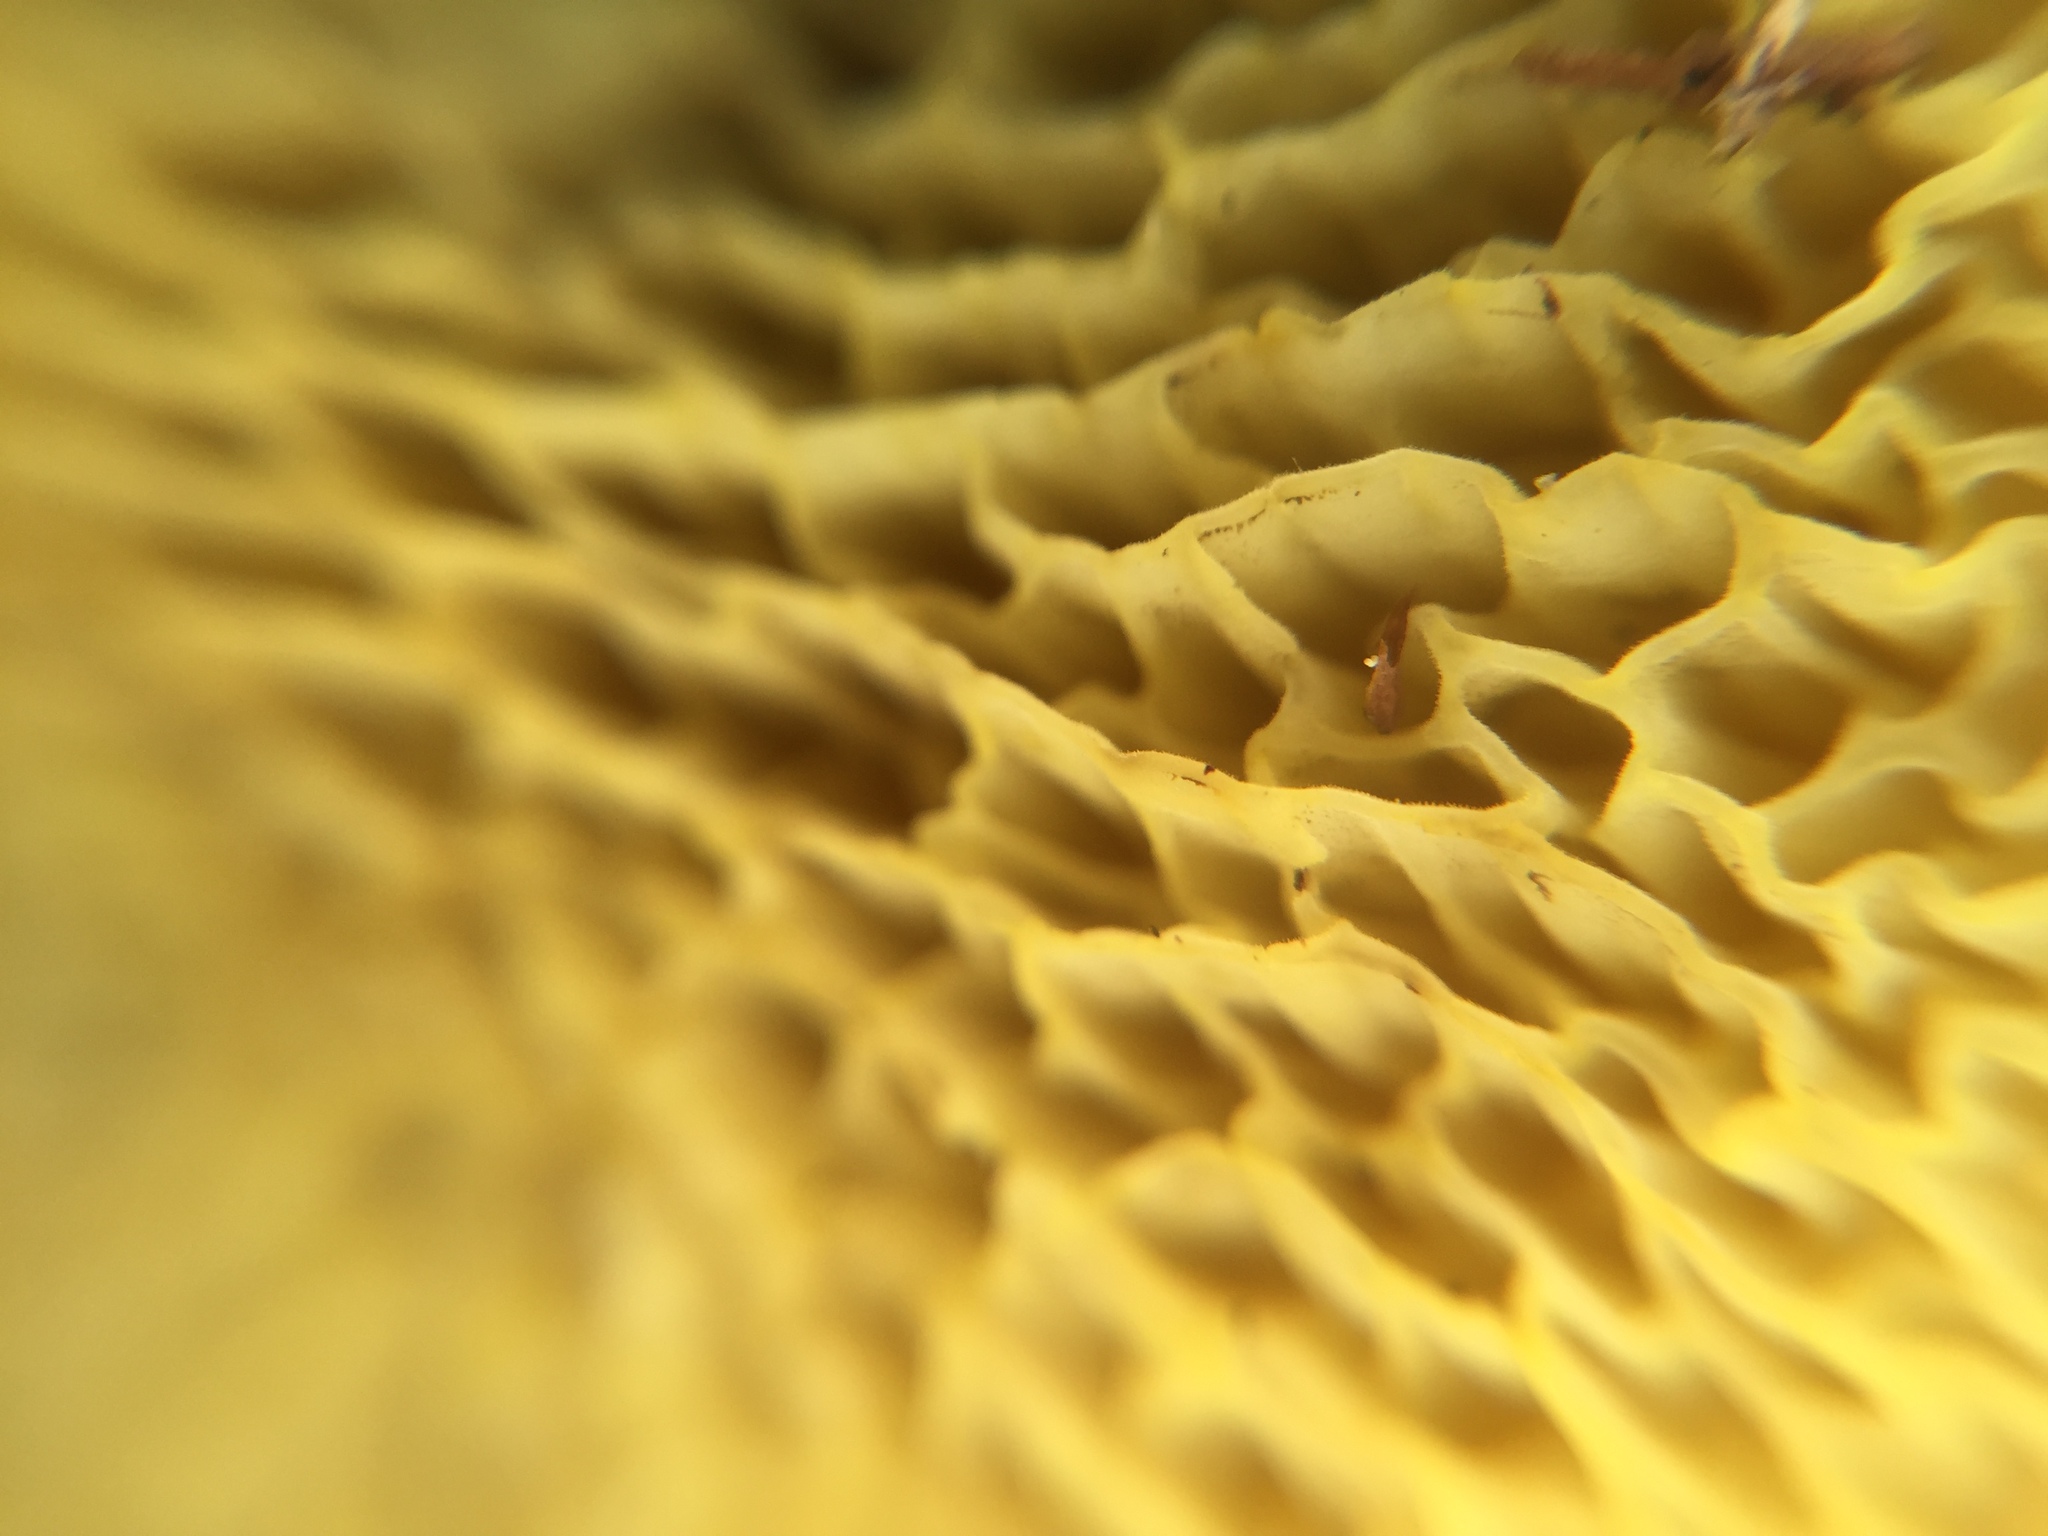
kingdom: Fungi
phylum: Basidiomycota
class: Agaricomycetes
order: Boletales
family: Suillaceae
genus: Suillus
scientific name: Suillus cavipes
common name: Hollow bolete
